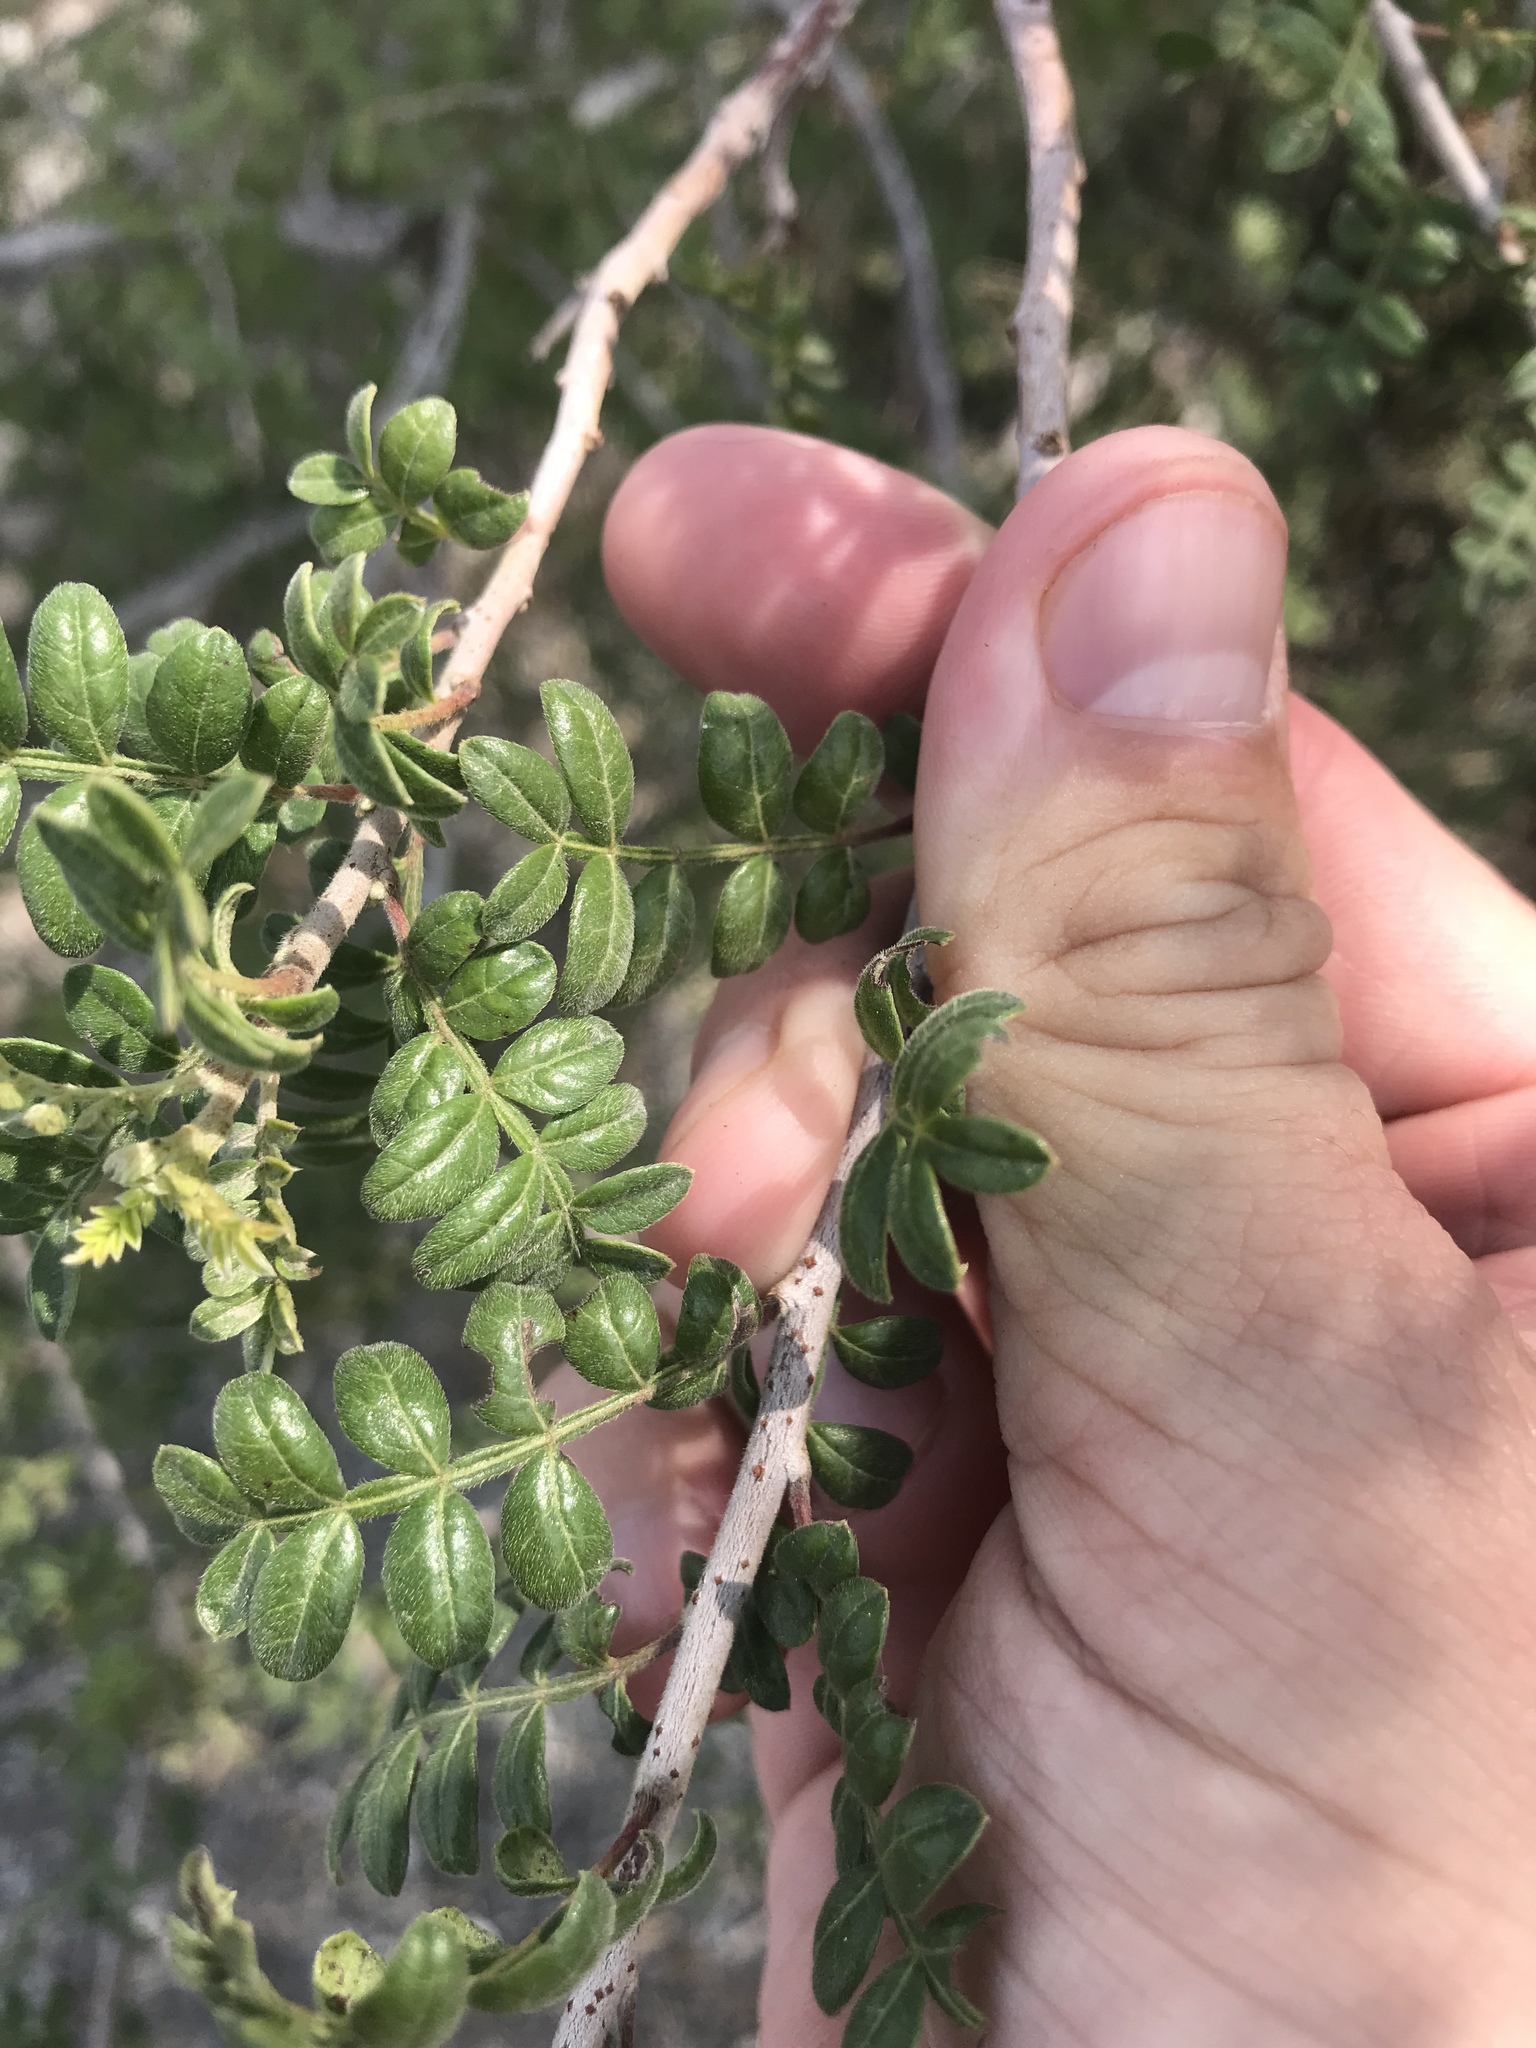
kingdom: Plantae
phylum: Tracheophyta
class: Magnoliopsida
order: Sapindales
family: Anacardiaceae
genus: Rhus
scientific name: Rhus microphylla
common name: Desert sumac
